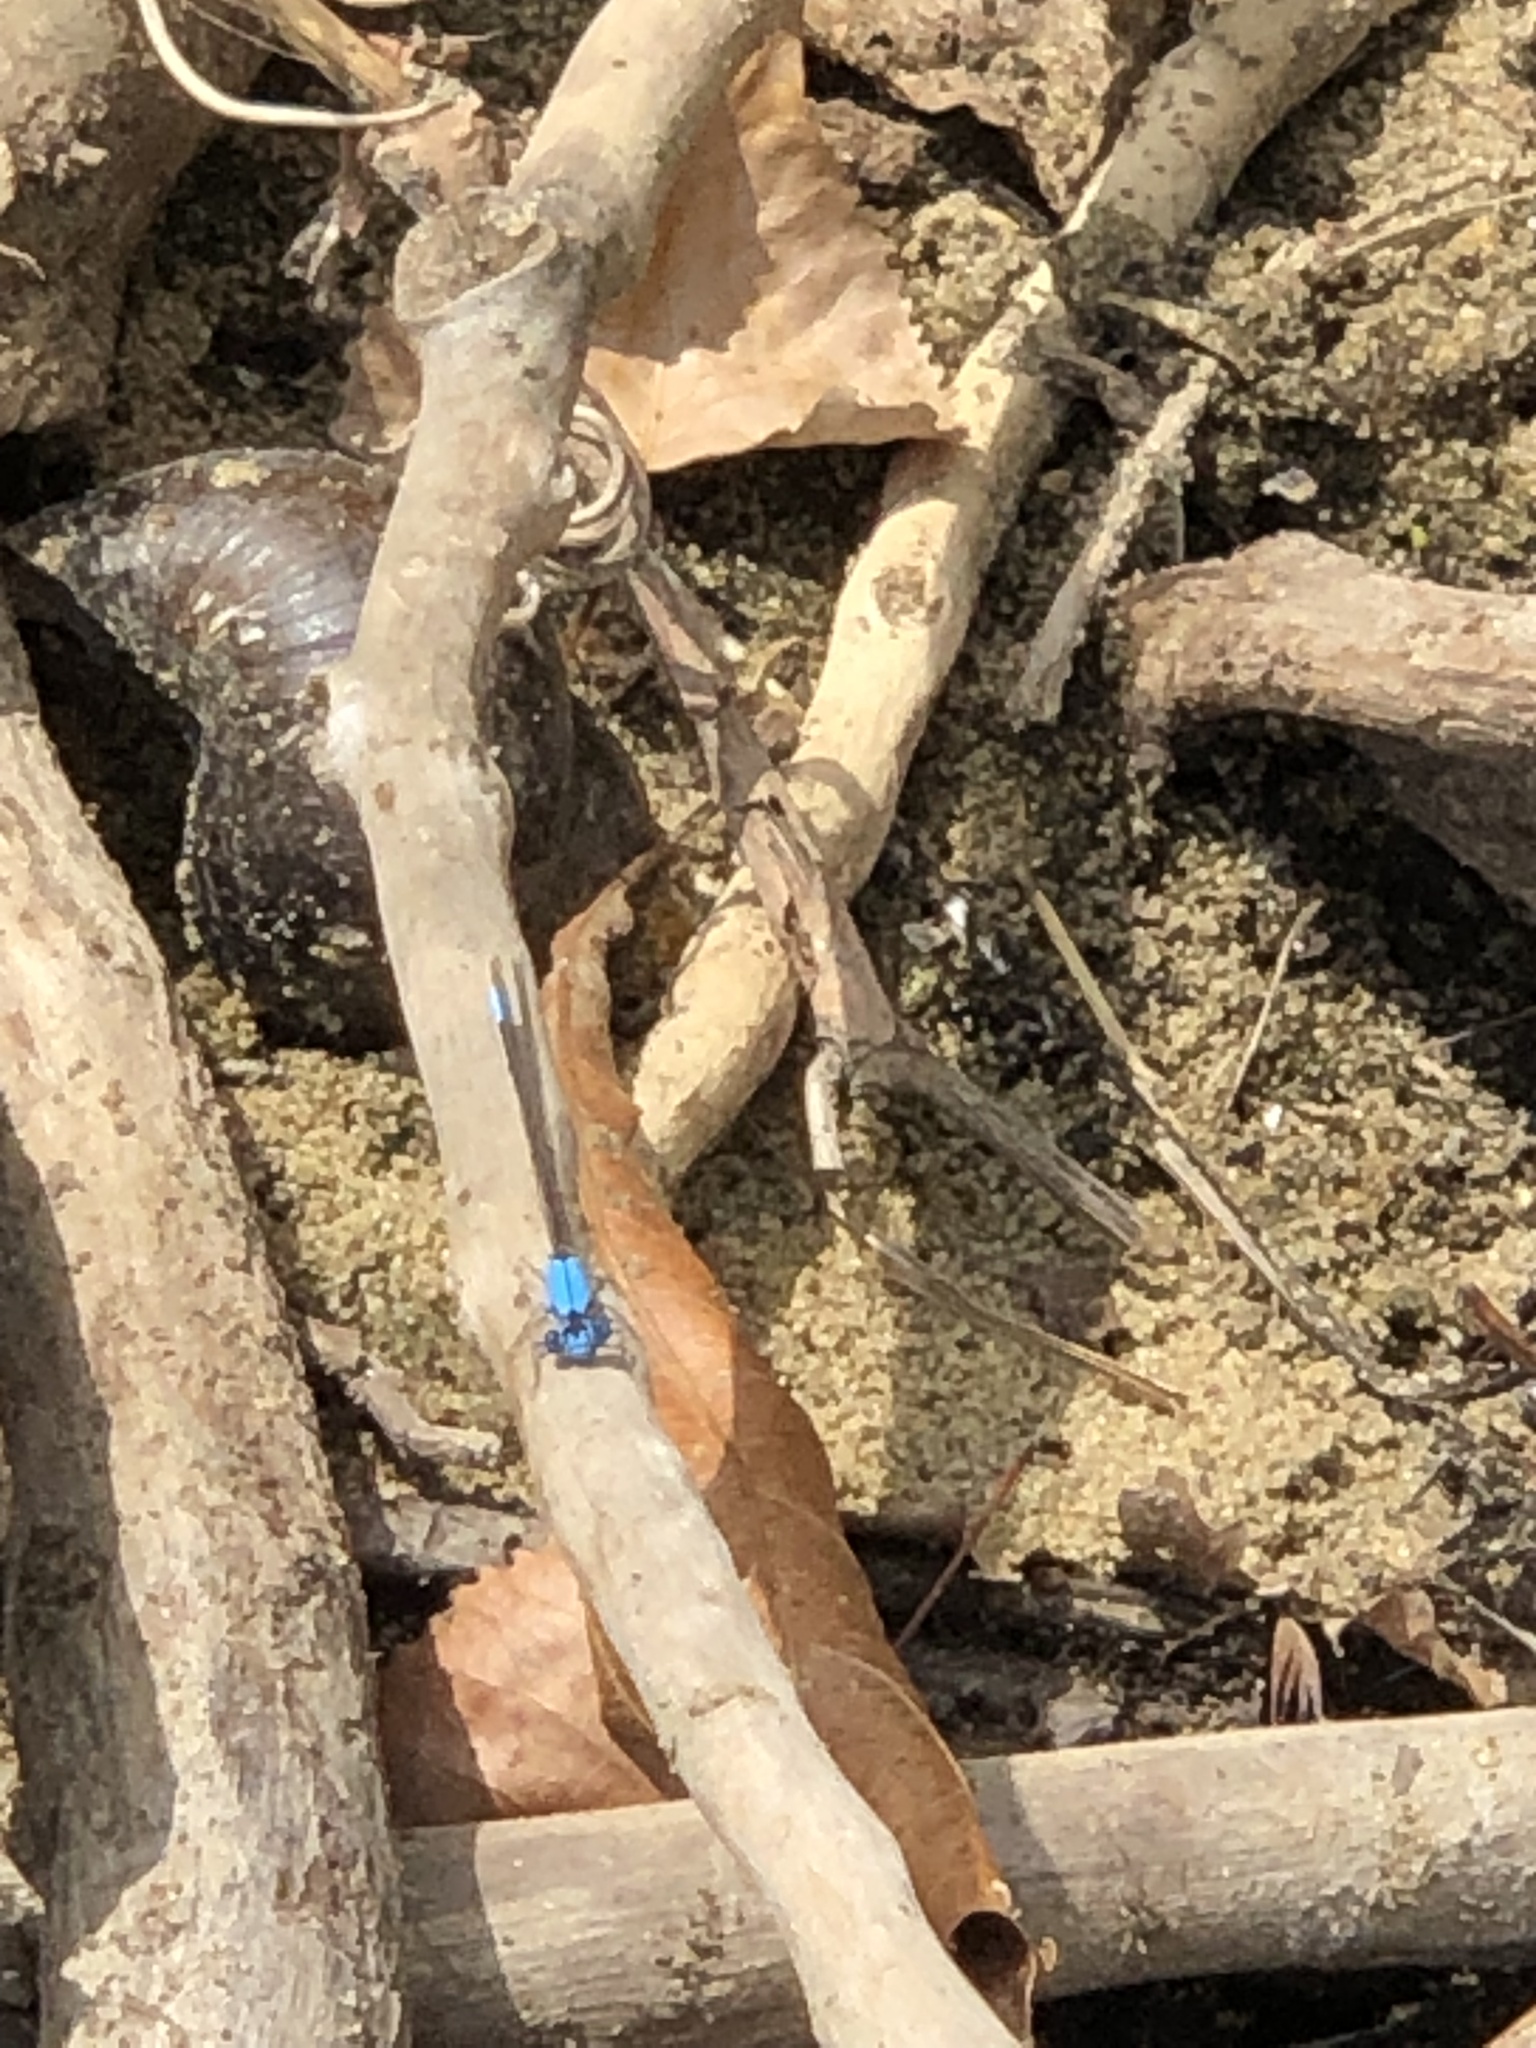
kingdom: Animalia
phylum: Arthropoda
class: Insecta
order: Odonata
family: Coenagrionidae
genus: Argia
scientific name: Argia apicalis
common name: Blue-fronted dancer
